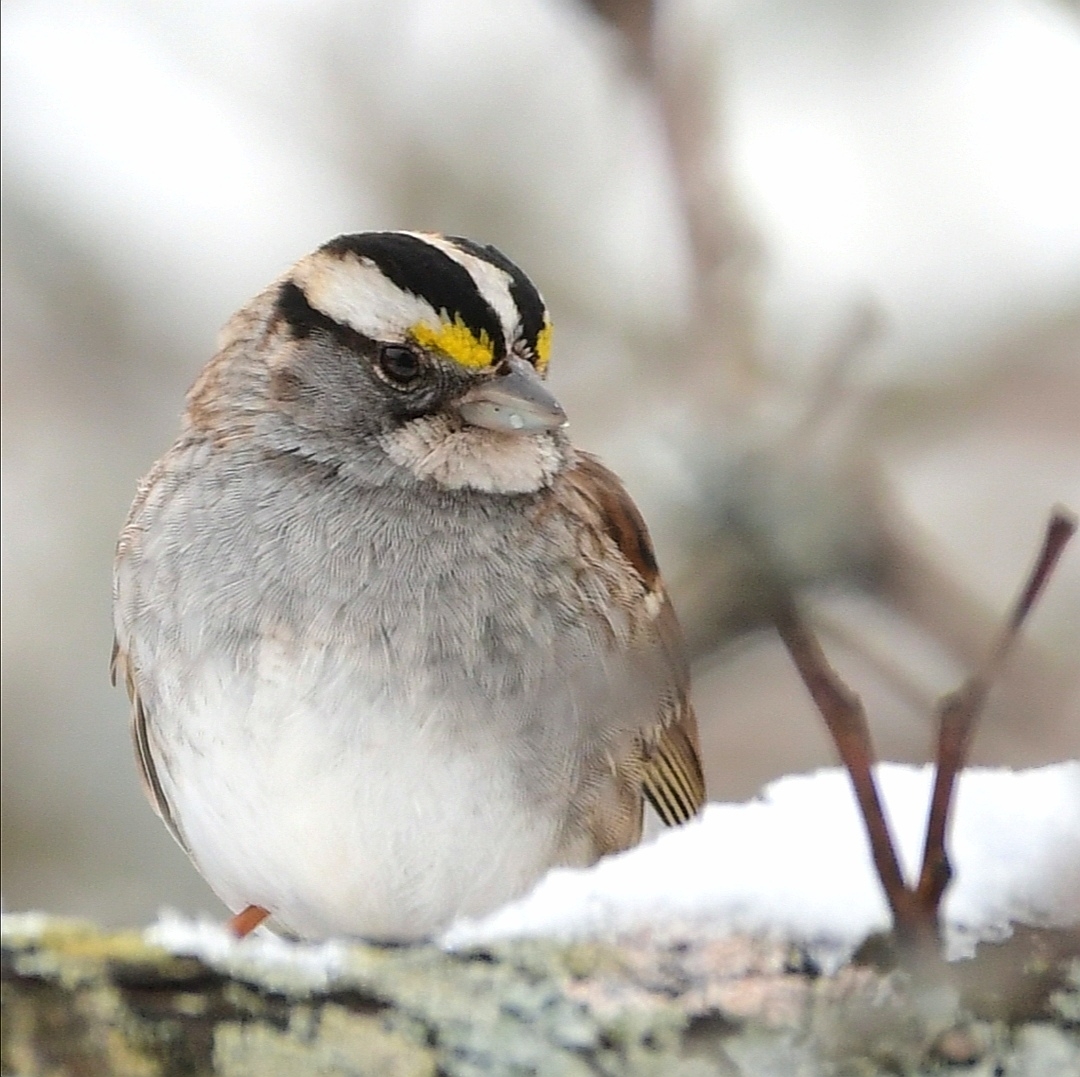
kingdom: Animalia
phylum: Chordata
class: Aves
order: Passeriformes
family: Passerellidae
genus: Zonotrichia
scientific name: Zonotrichia albicollis
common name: White-throated sparrow
